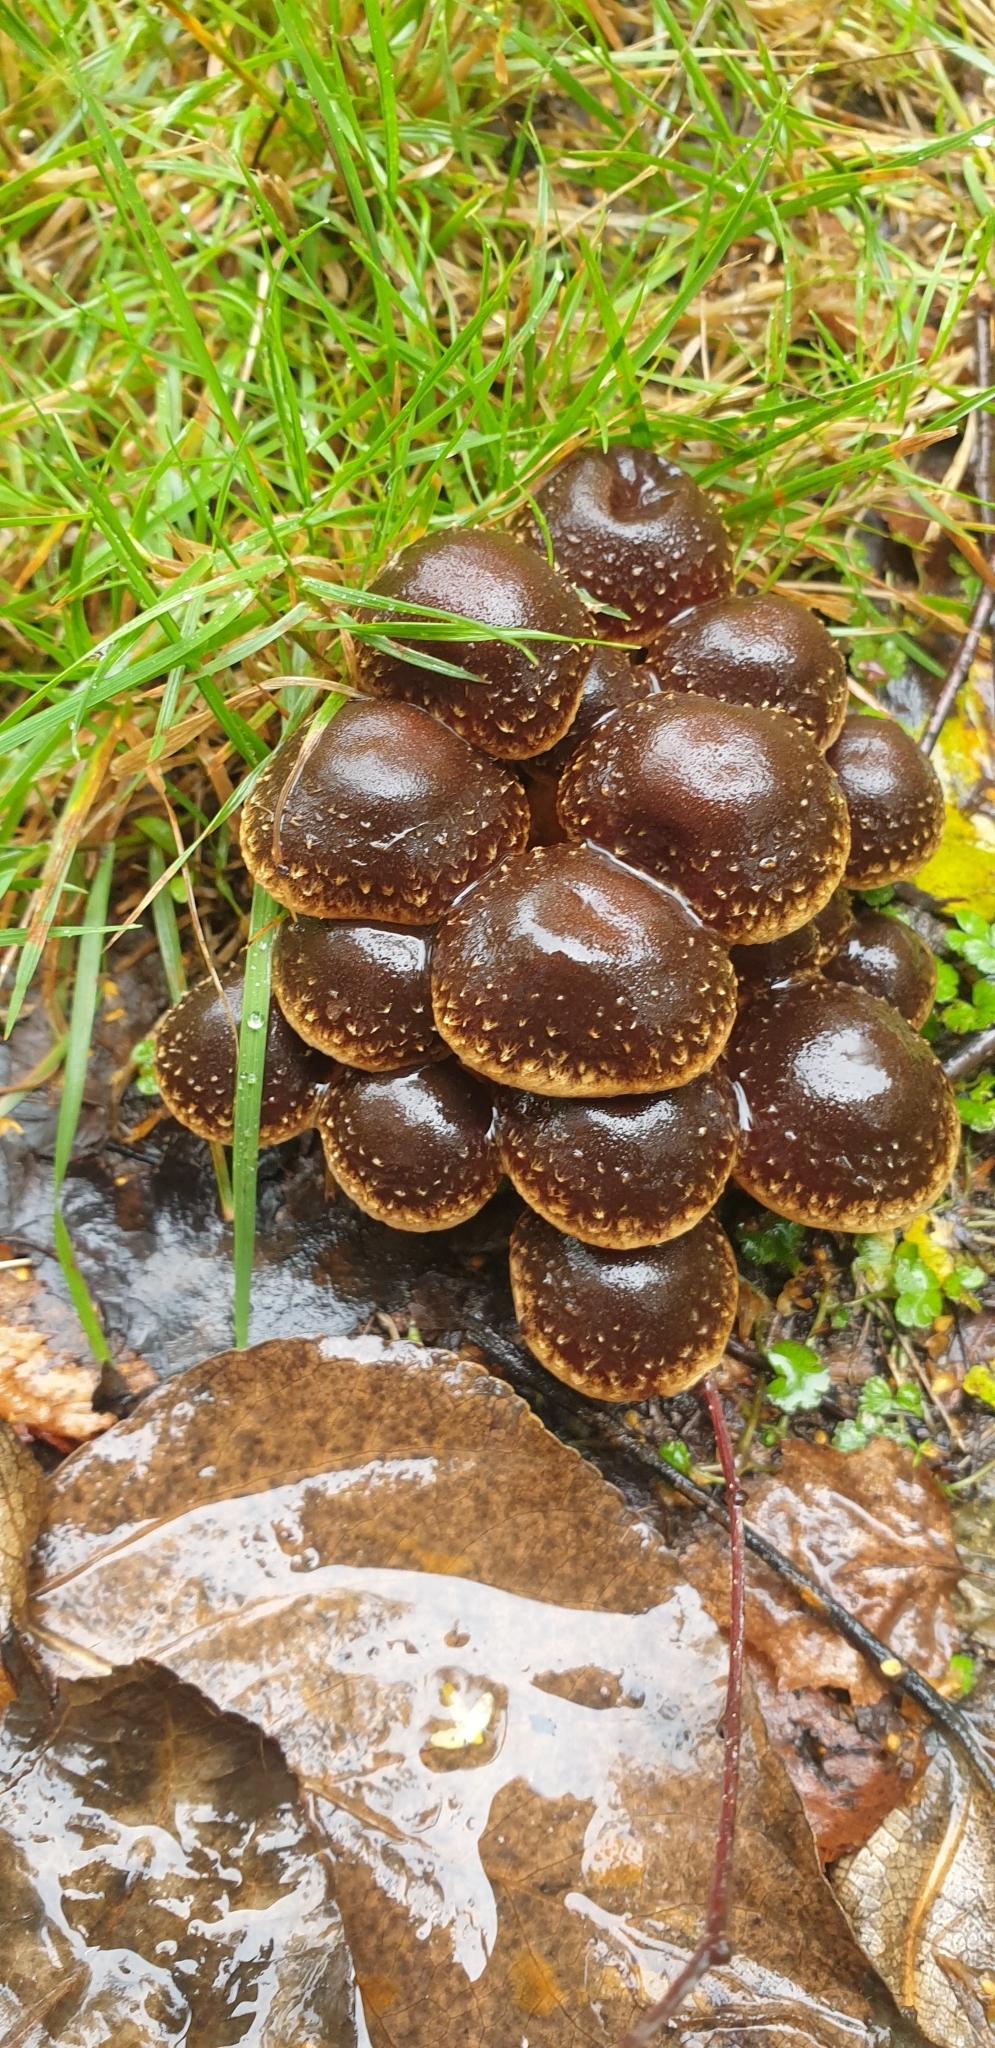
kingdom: Fungi
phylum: Basidiomycota
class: Agaricomycetes
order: Agaricales
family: Strophariaceae
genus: Hypholoma
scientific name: Hypholoma brunneum
